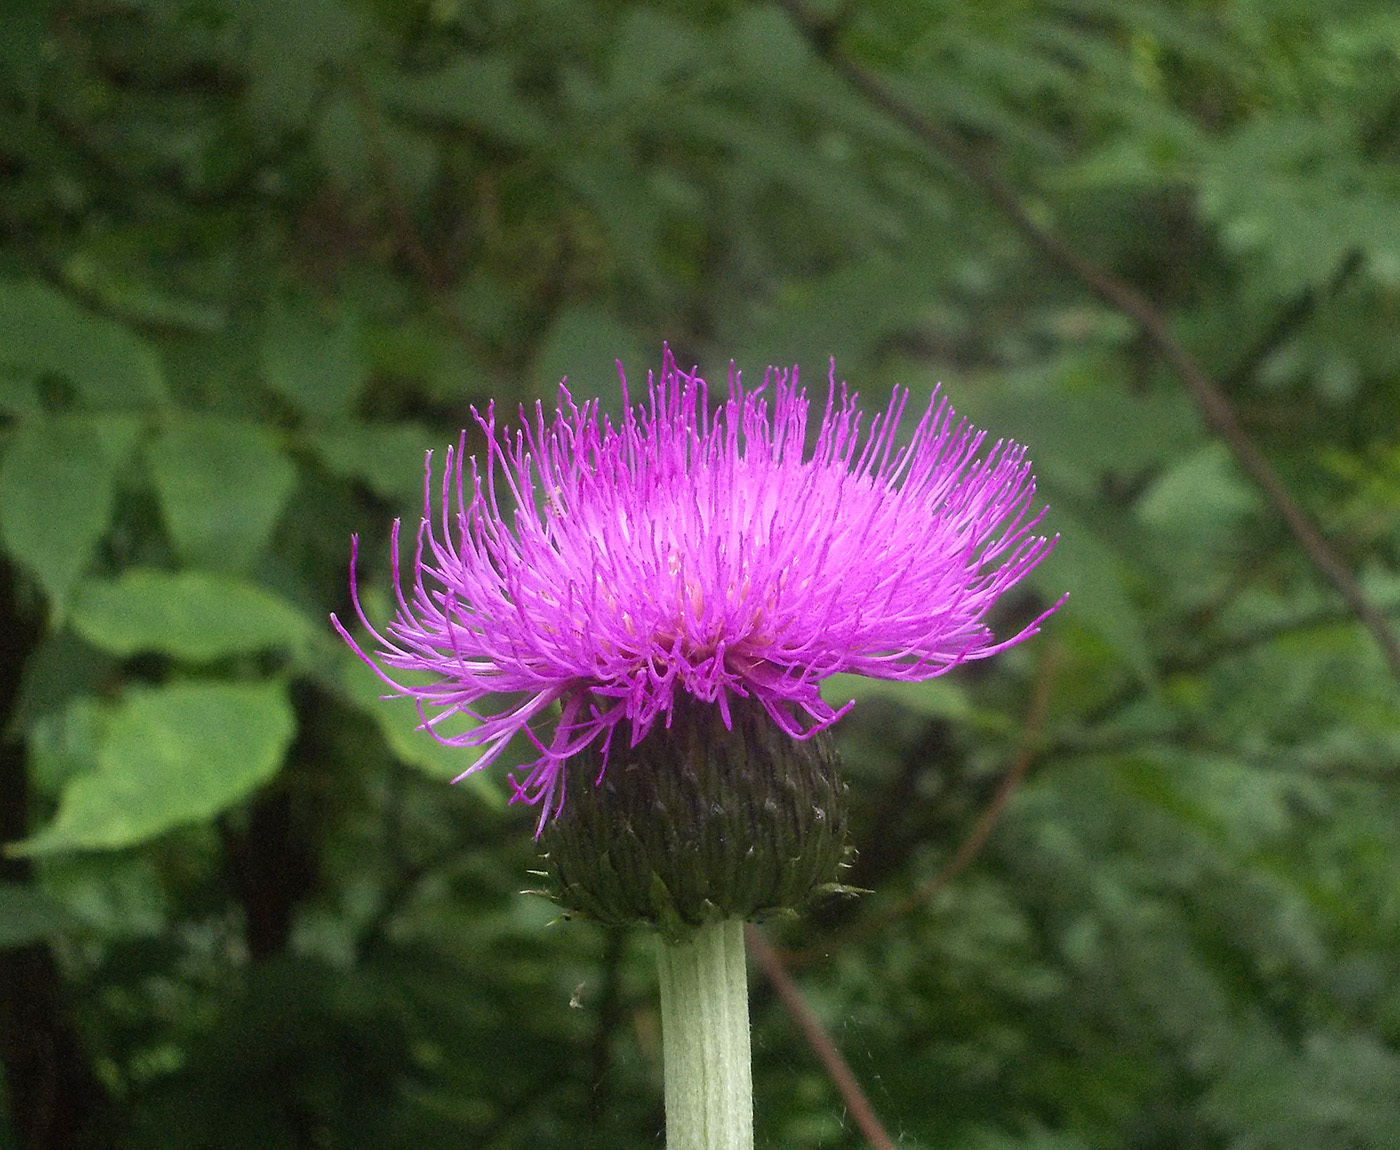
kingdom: Plantae
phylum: Tracheophyta
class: Magnoliopsida
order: Asterales
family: Asteraceae
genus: Cirsium
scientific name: Cirsium heterophyllum
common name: Melancholy thistle
